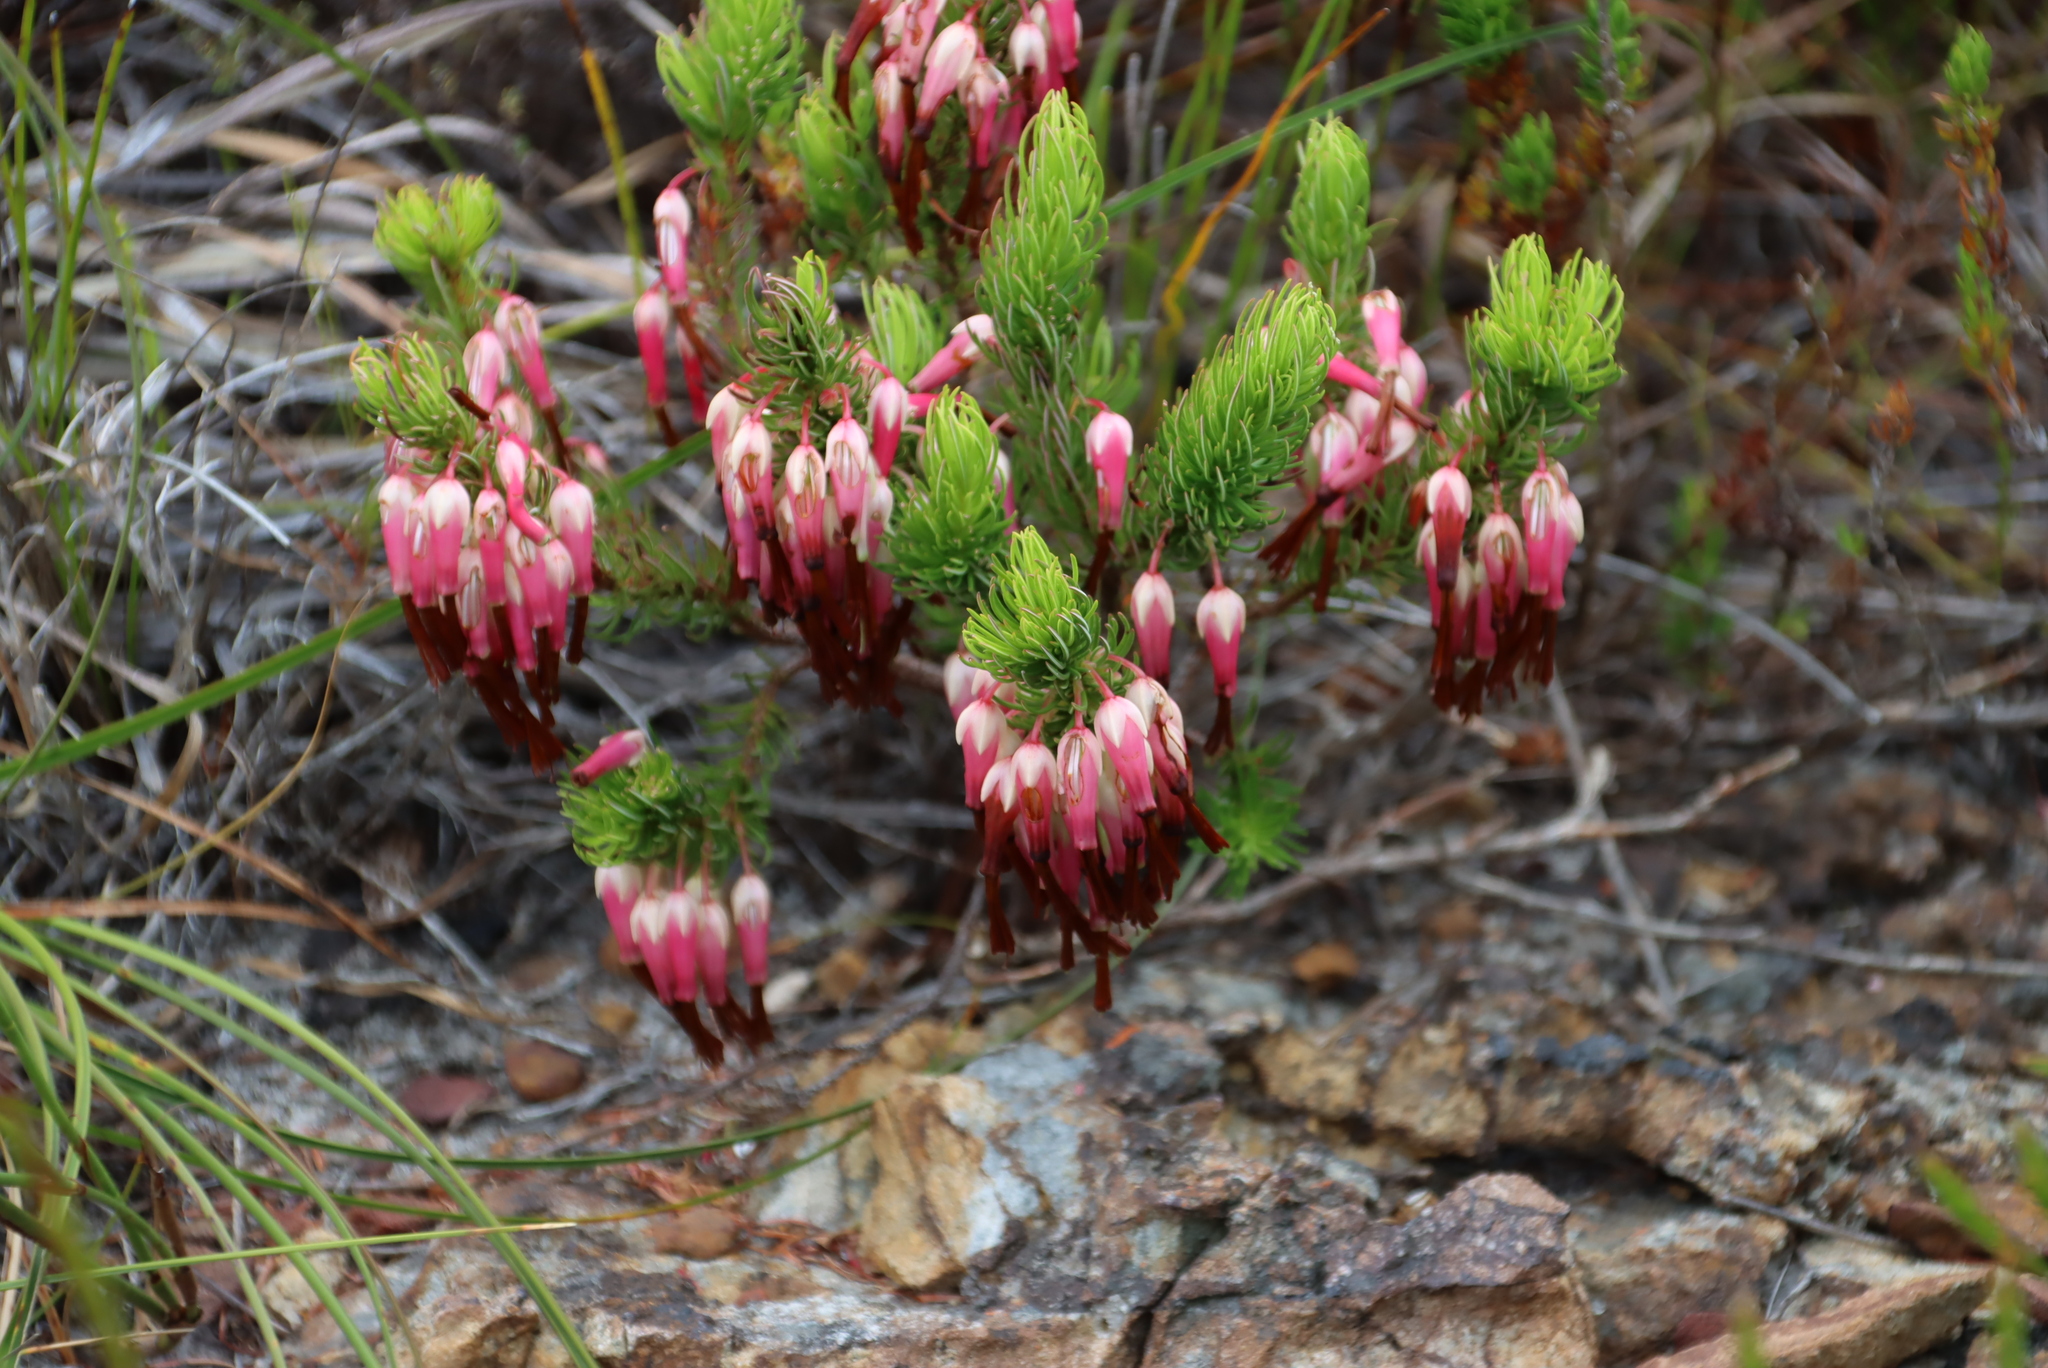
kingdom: Plantae
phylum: Tracheophyta
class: Magnoliopsida
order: Ericales
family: Ericaceae
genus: Erica
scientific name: Erica plukenetii
